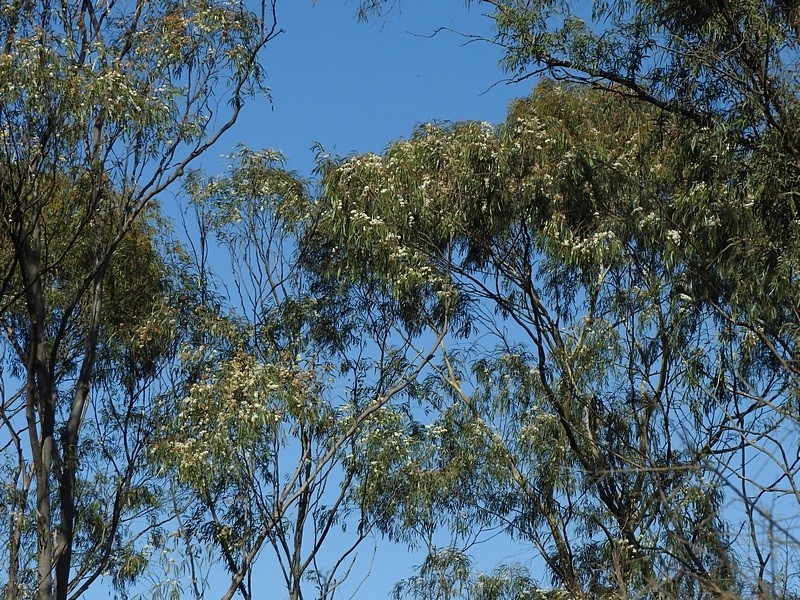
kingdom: Plantae
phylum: Tracheophyta
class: Magnoliopsida
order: Myrtales
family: Myrtaceae
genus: Eucalyptus
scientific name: Eucalyptus elata
